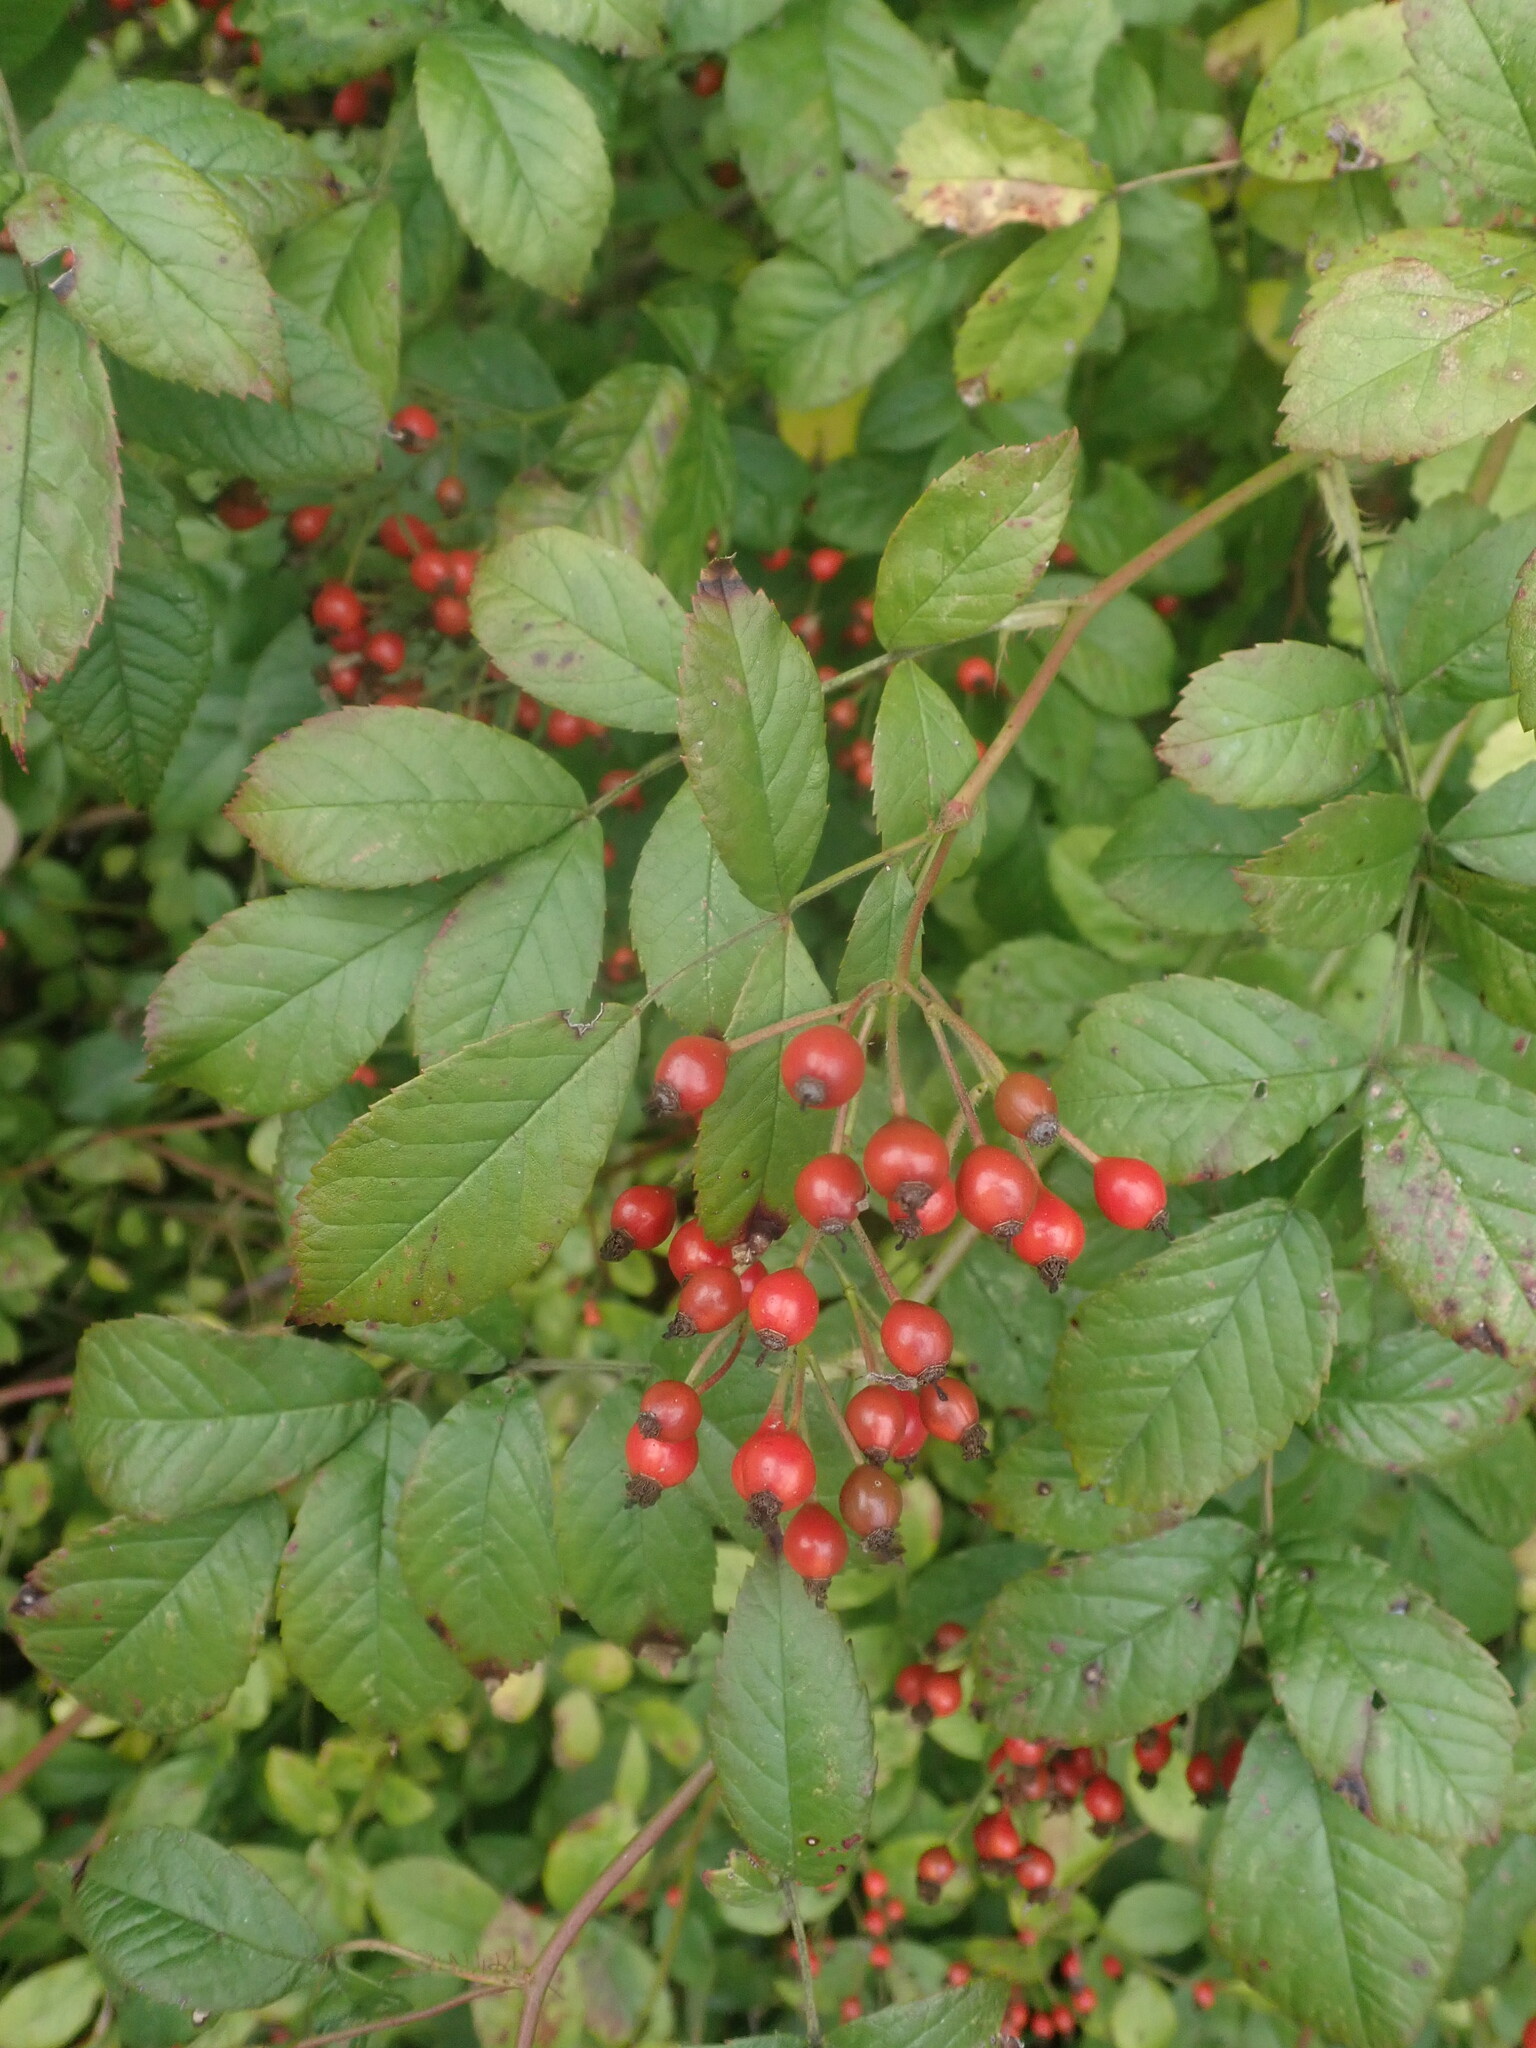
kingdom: Plantae
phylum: Tracheophyta
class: Magnoliopsida
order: Rosales
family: Rosaceae
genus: Rosa
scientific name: Rosa multiflora
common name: Multiflora rose
